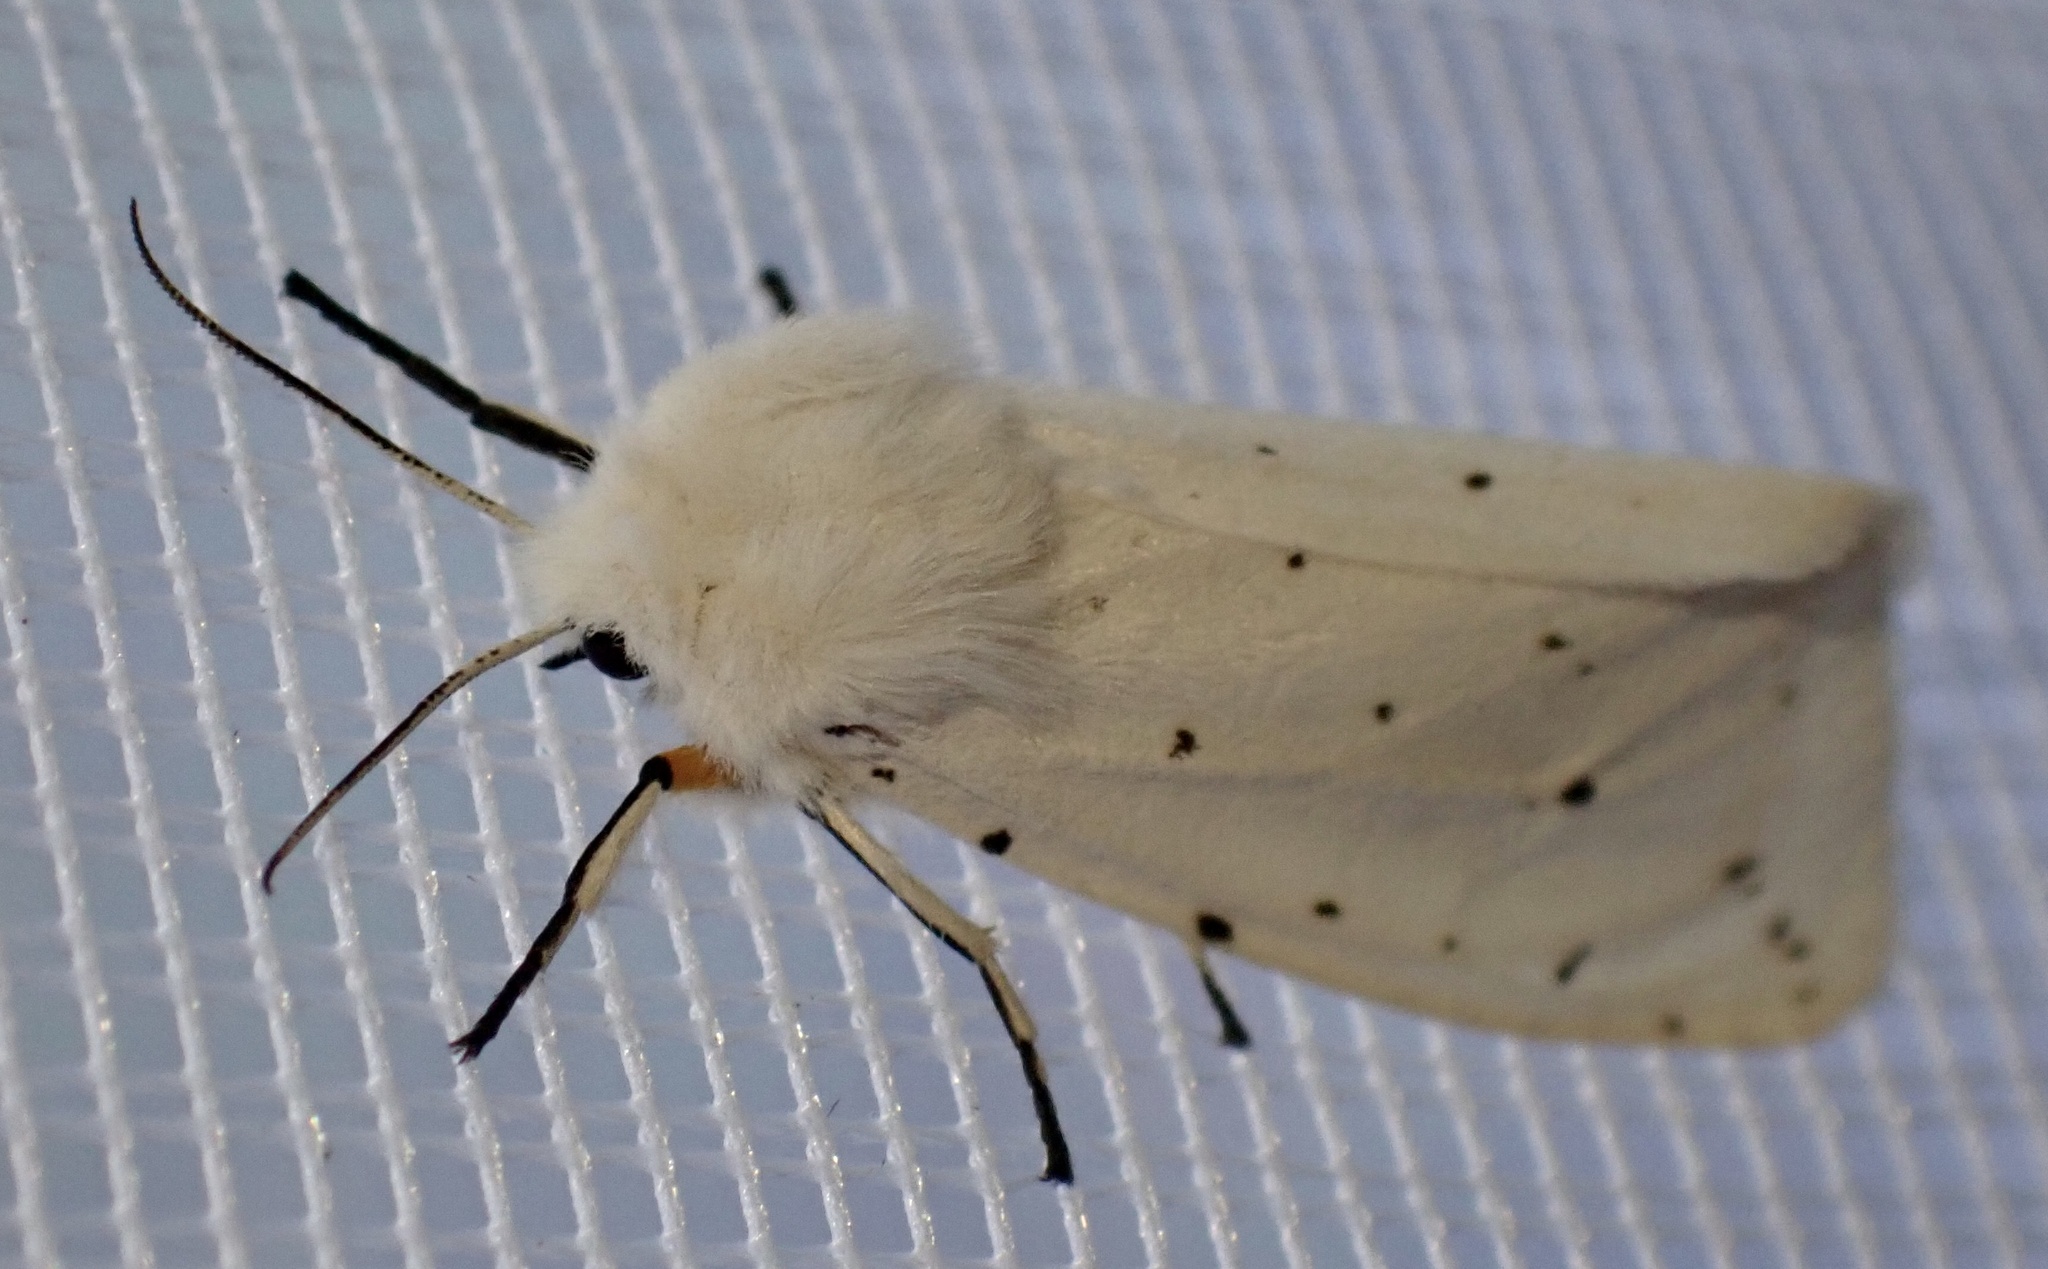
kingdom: Animalia
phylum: Arthropoda
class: Insecta
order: Lepidoptera
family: Erebidae
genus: Spilosoma
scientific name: Spilosoma lubricipeda
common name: White ermine
